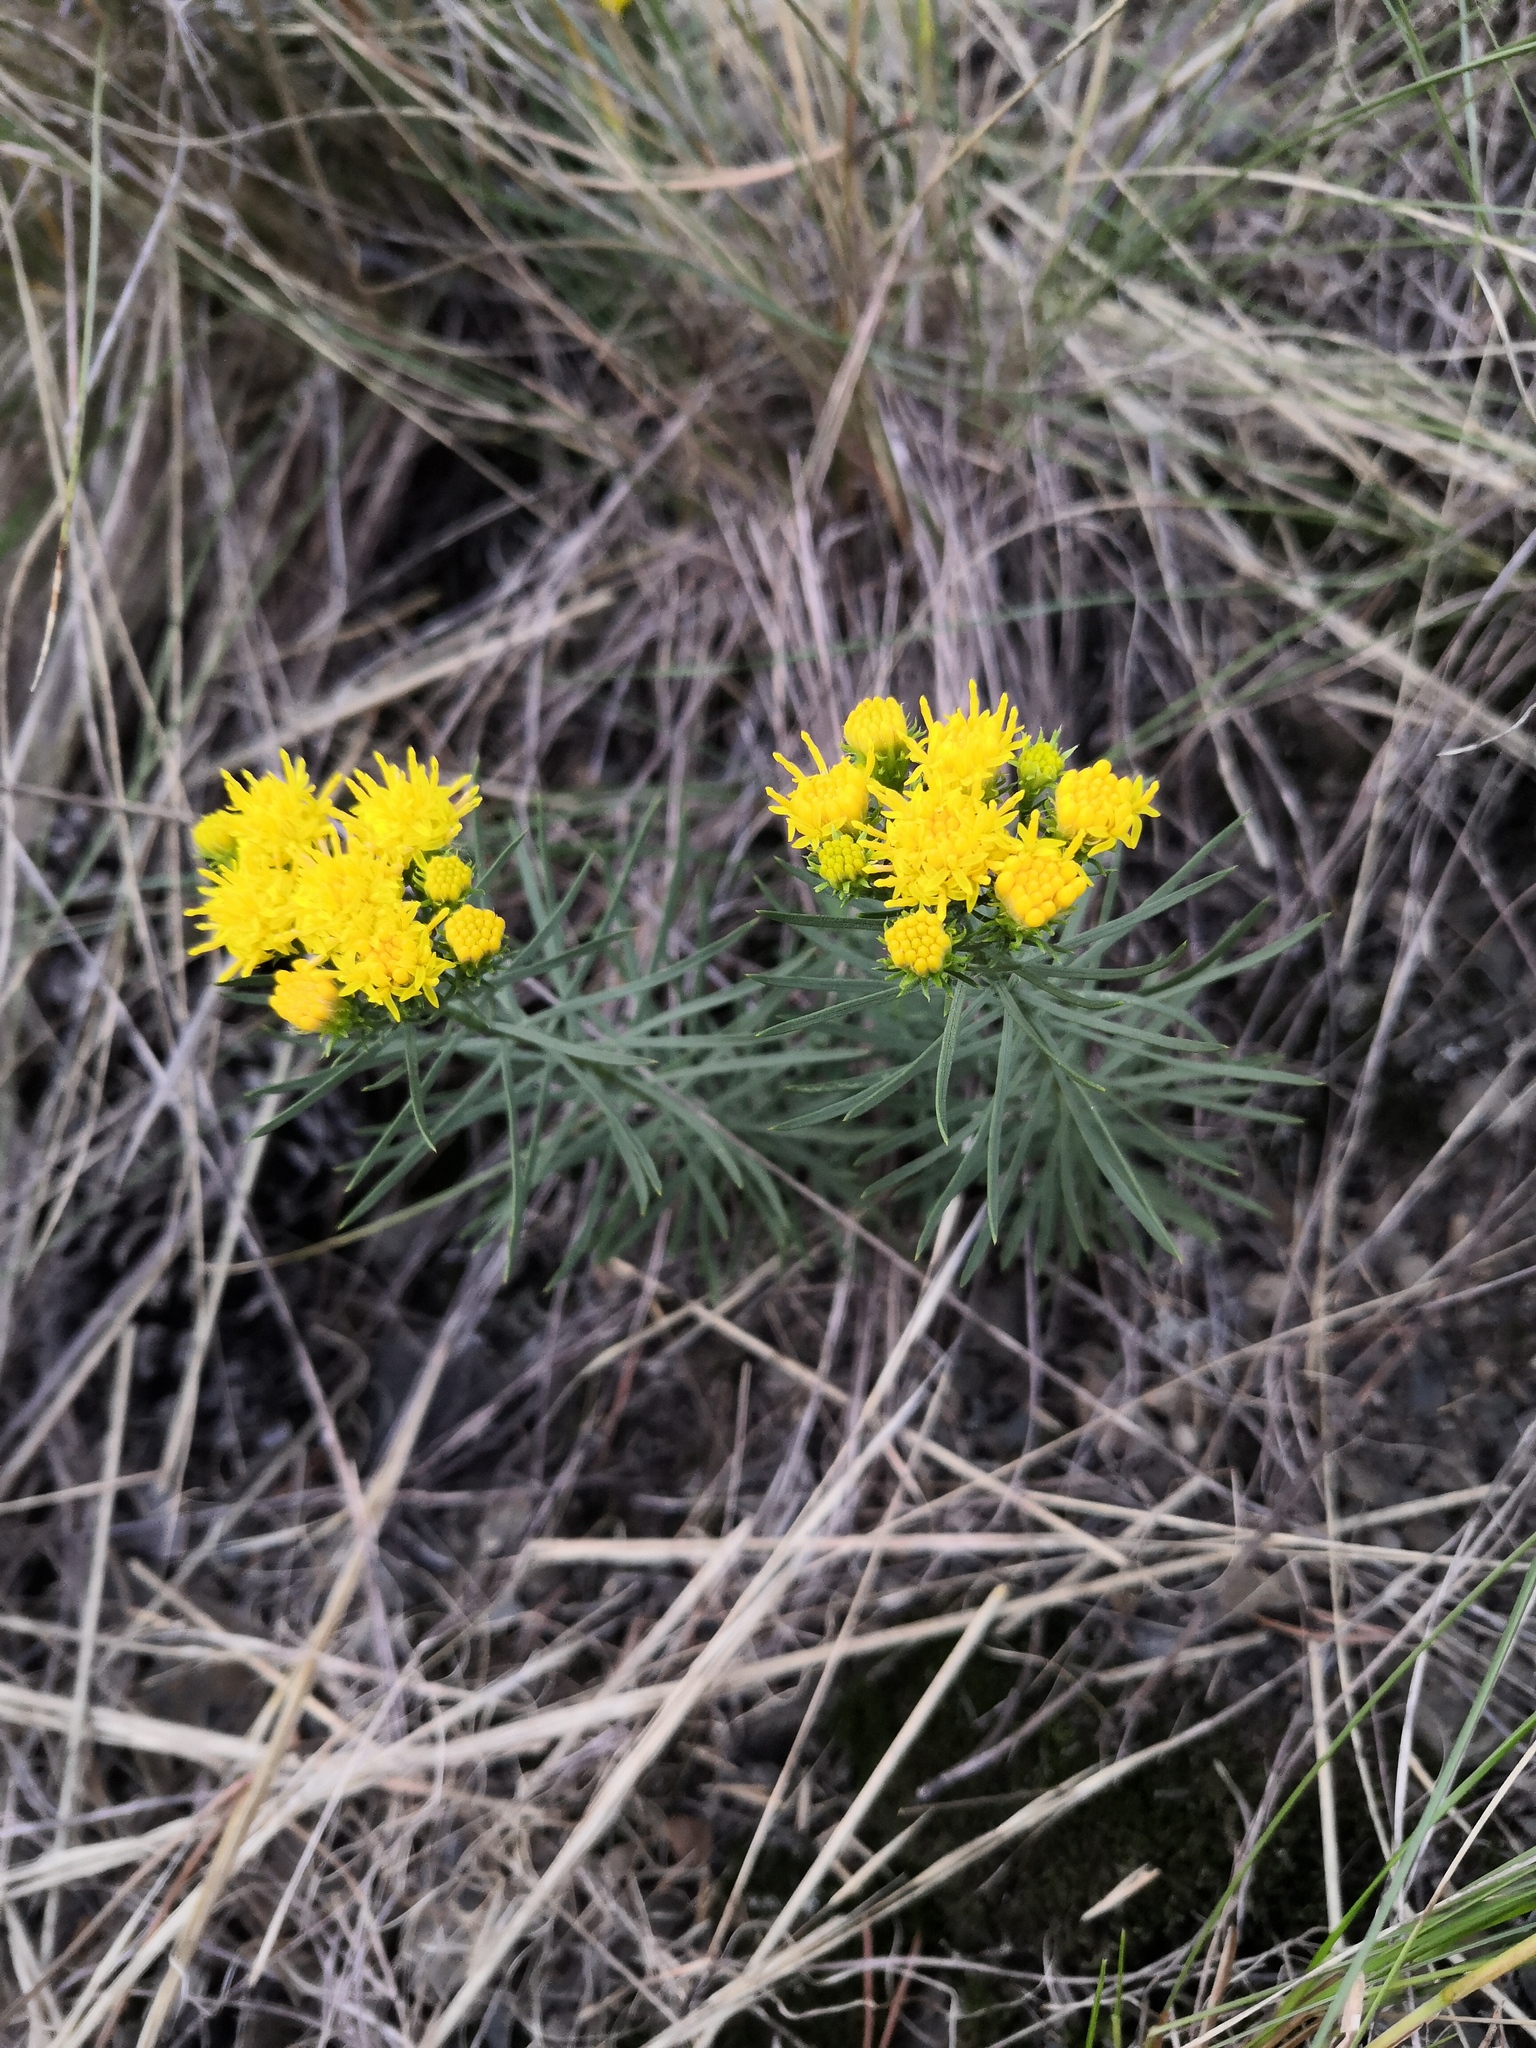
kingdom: Plantae
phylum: Tracheophyta
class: Magnoliopsida
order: Asterales
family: Asteraceae
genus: Galatella
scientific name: Galatella linosyris
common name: Goldilocks aster
